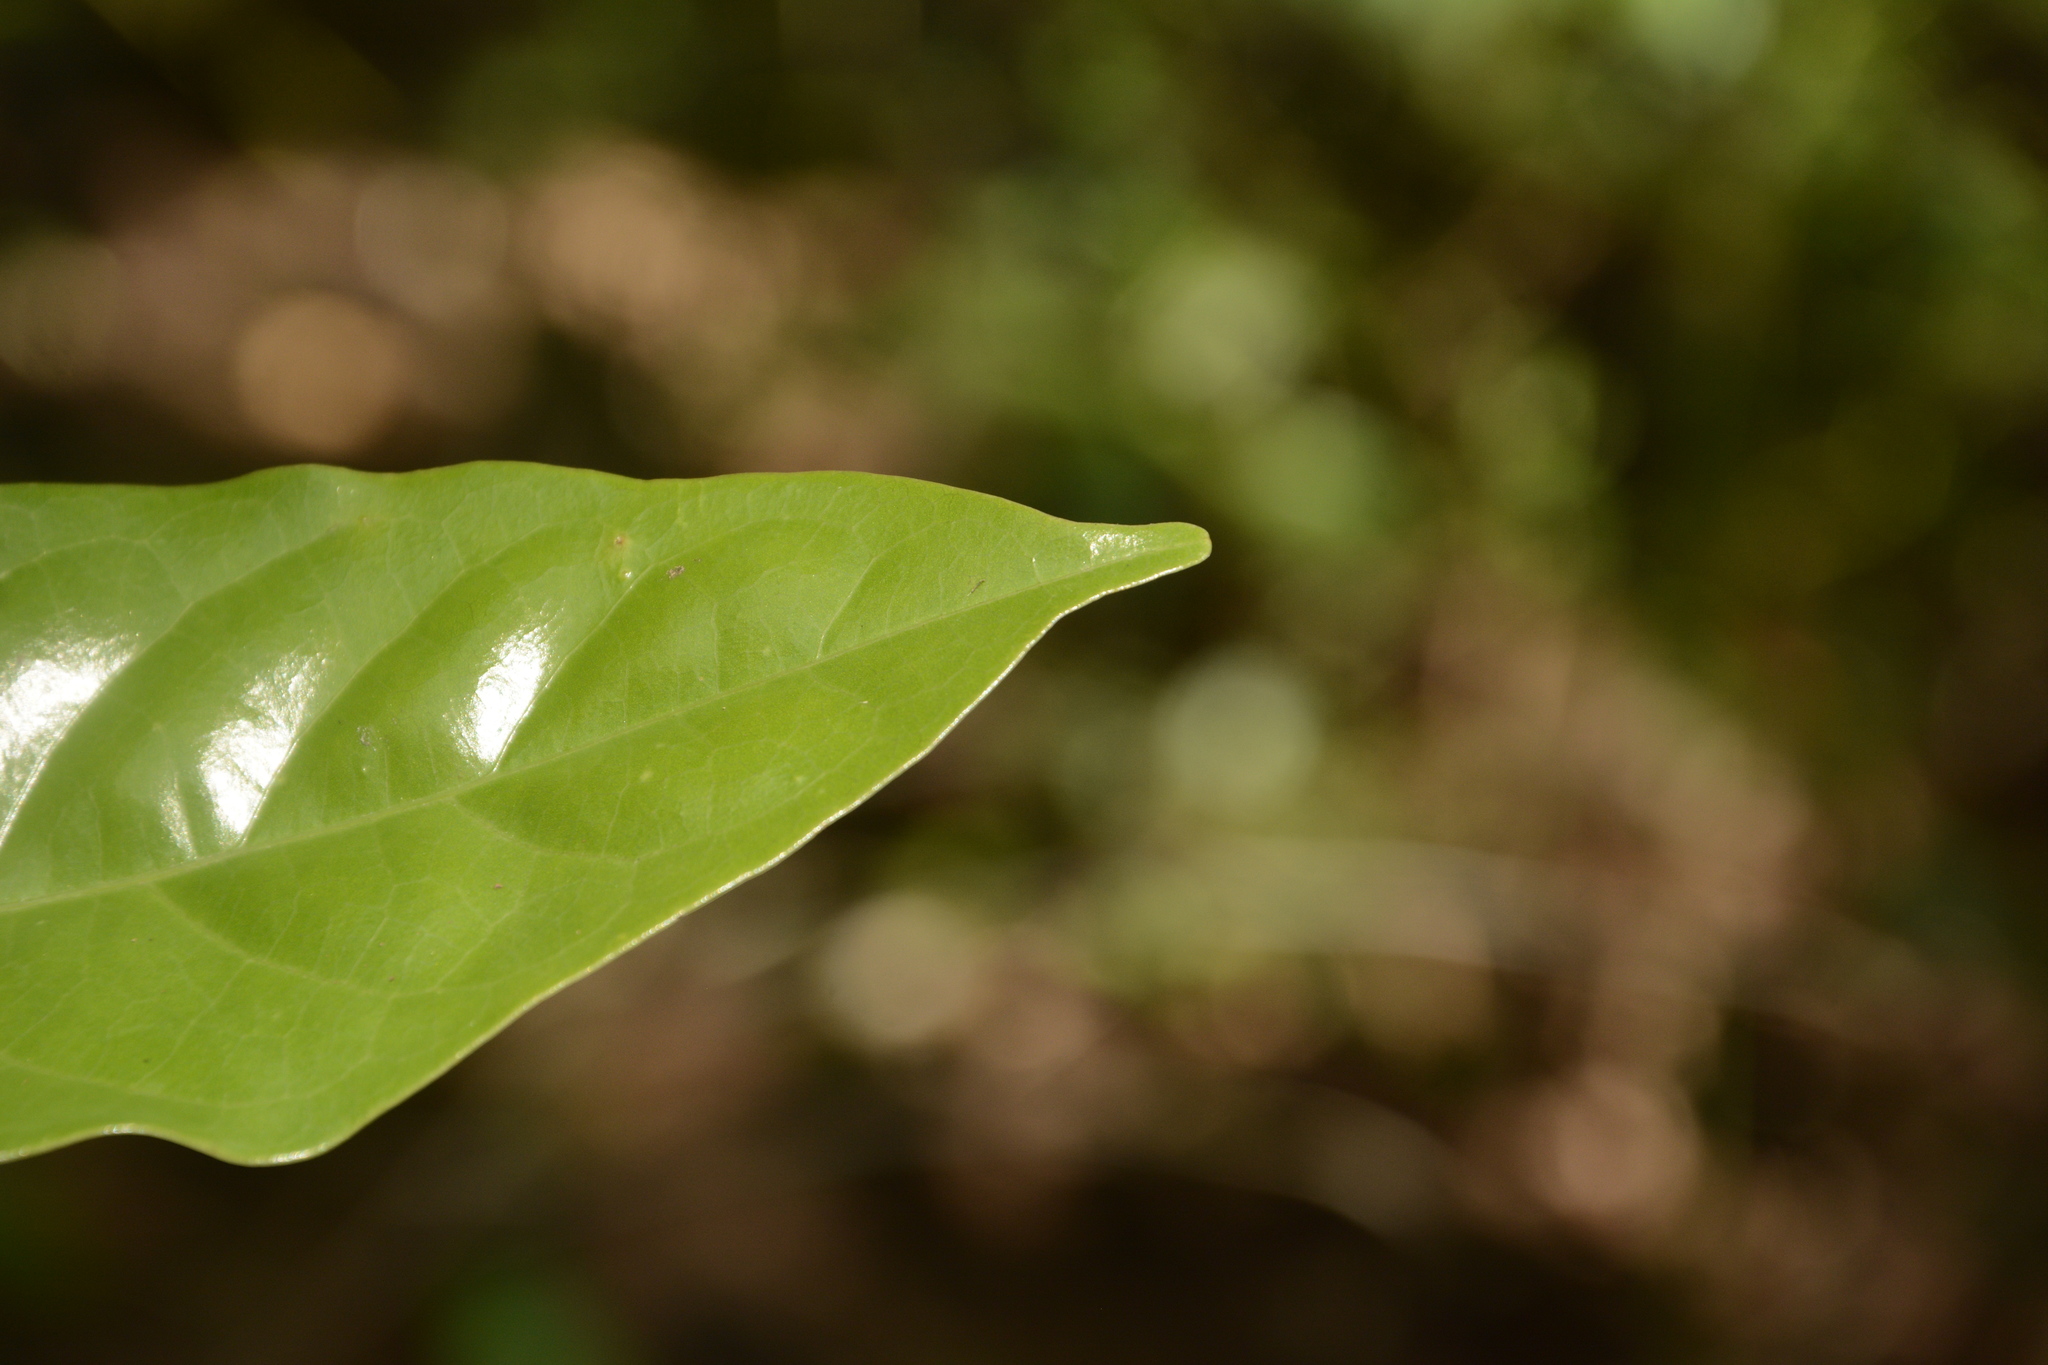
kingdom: Plantae
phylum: Tracheophyta
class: Magnoliopsida
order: Malpighiales
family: Phyllanthaceae
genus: Aporosa
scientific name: Aporosa cardiosperma
